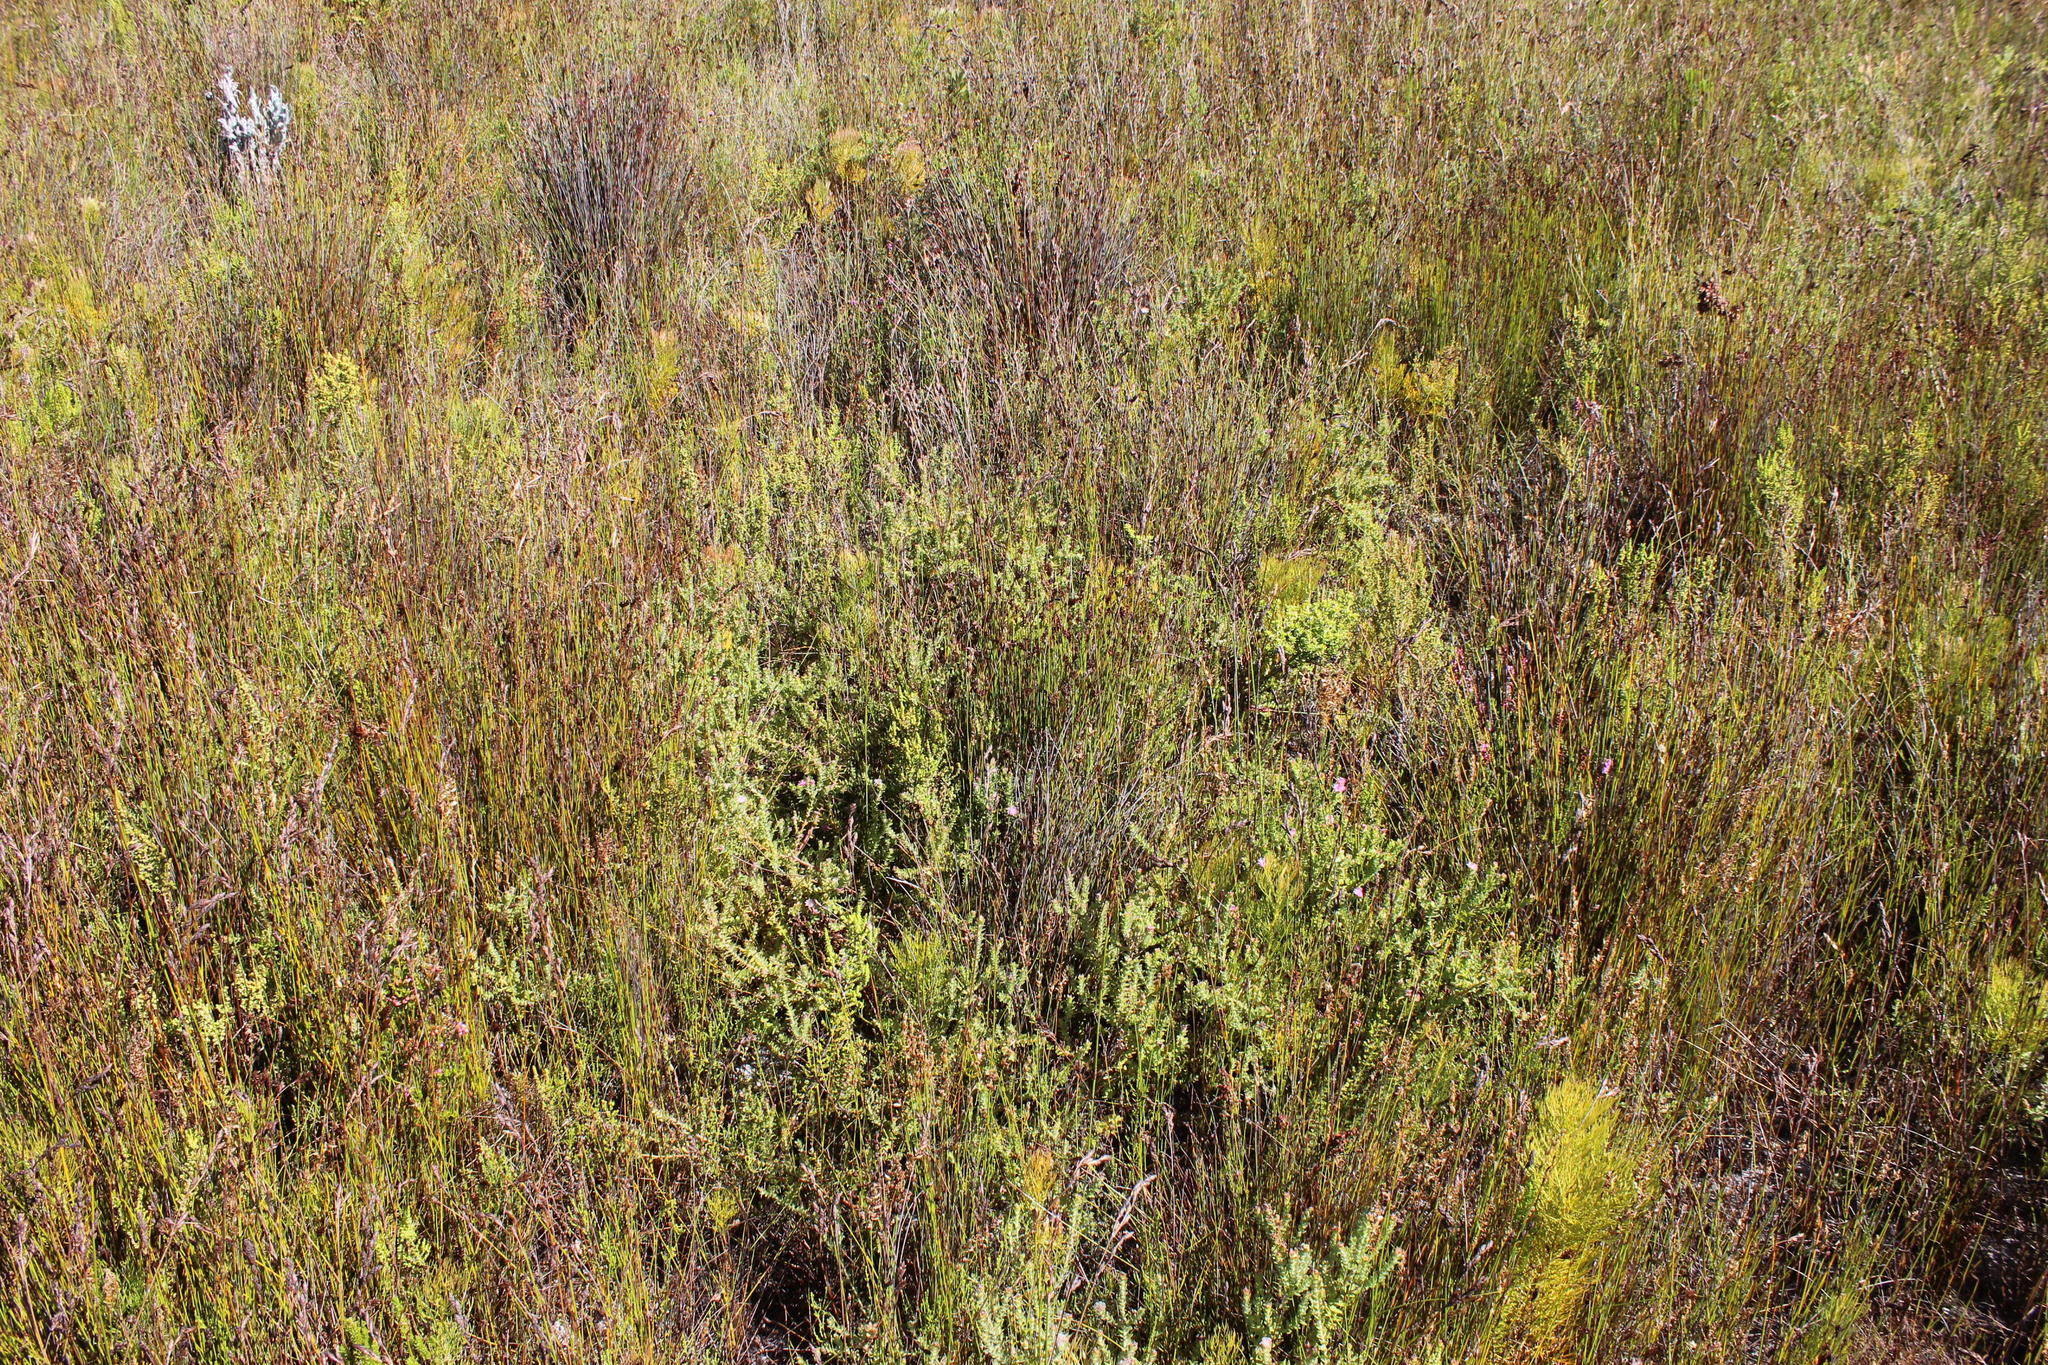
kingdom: Plantae
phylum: Tracheophyta
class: Magnoliopsida
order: Proteales
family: Proteaceae
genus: Diastella
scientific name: Diastella divaricata
